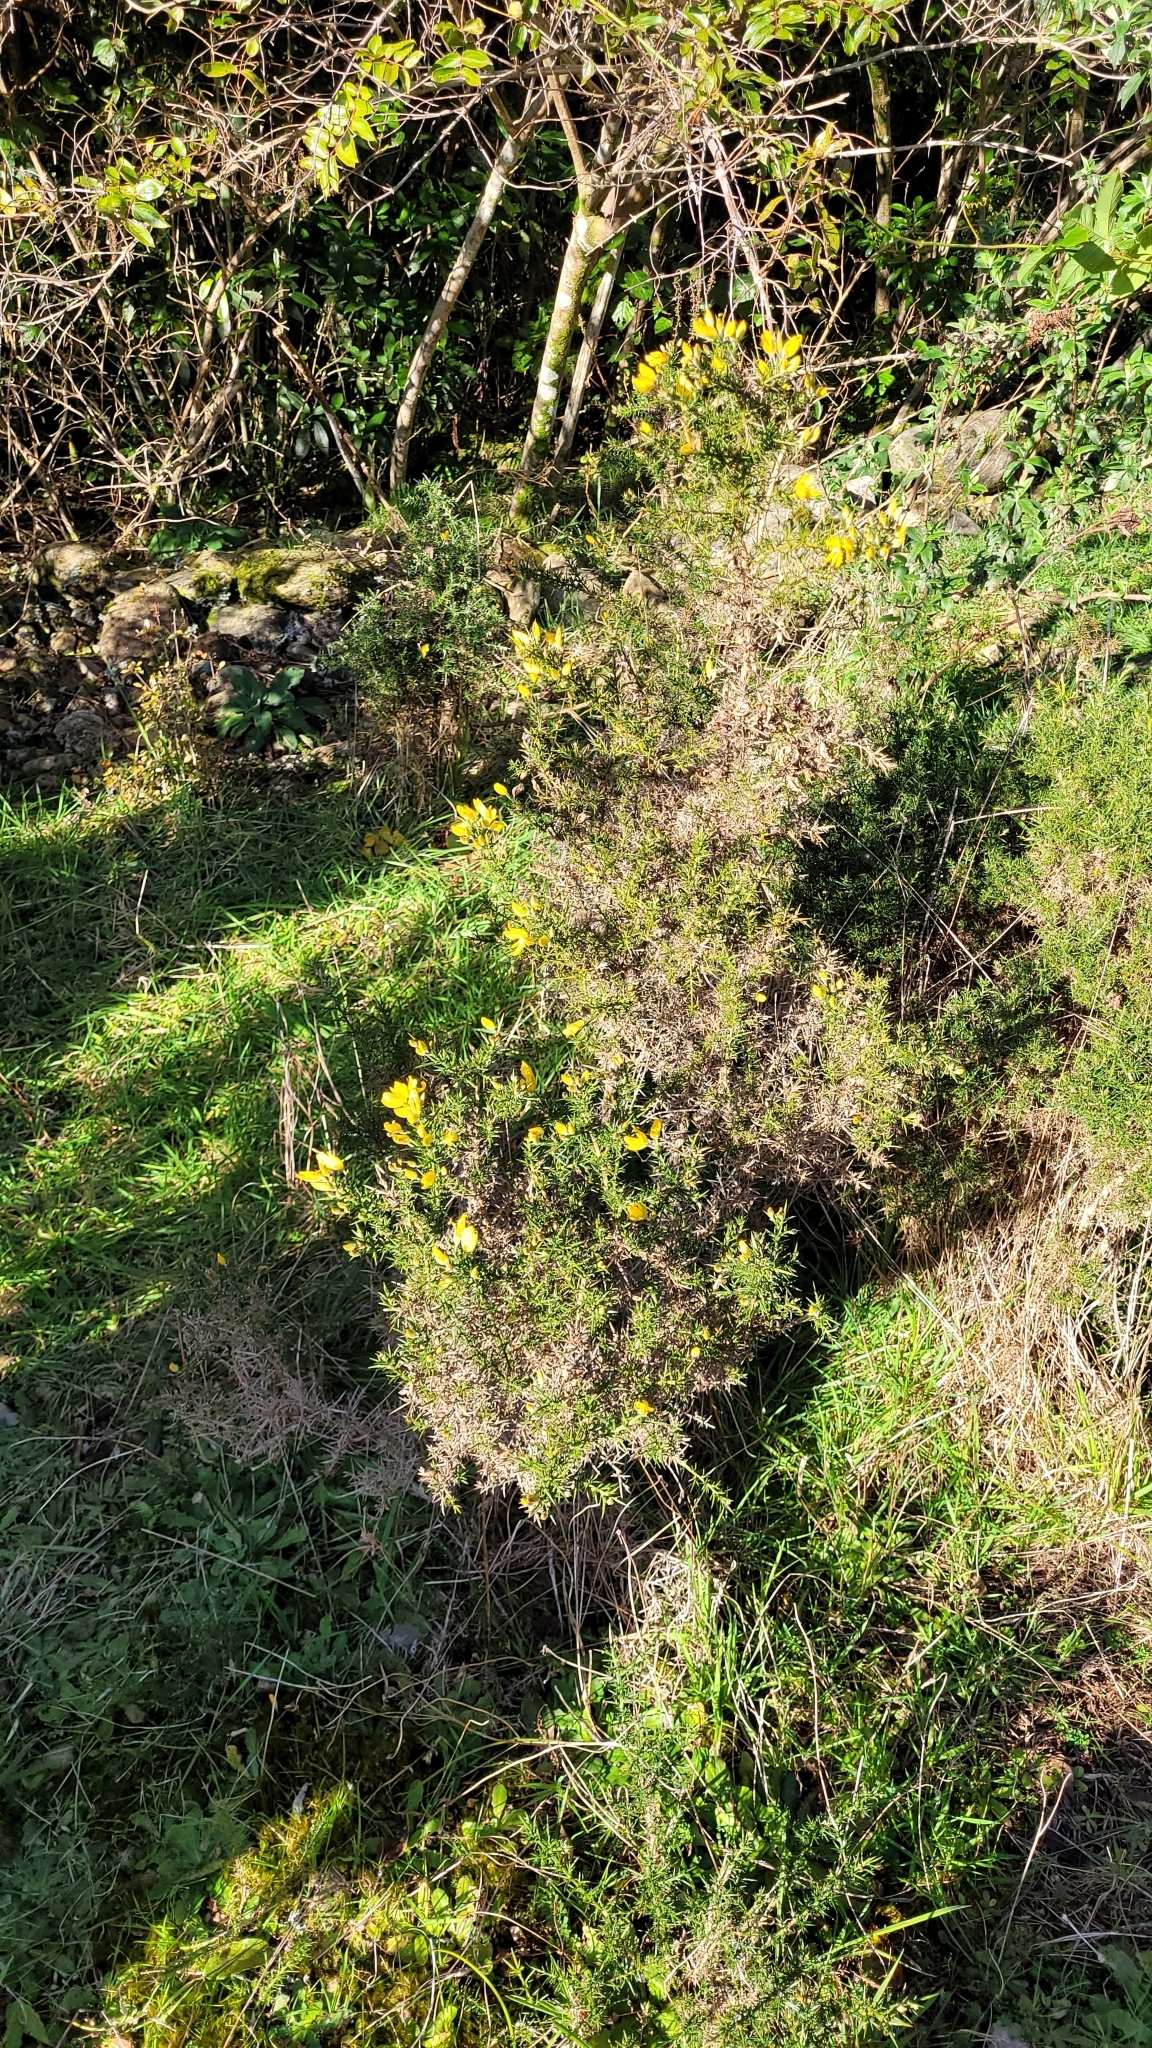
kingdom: Plantae
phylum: Tracheophyta
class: Magnoliopsida
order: Fabales
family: Fabaceae
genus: Ulex
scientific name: Ulex europaeus
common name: Common gorse
